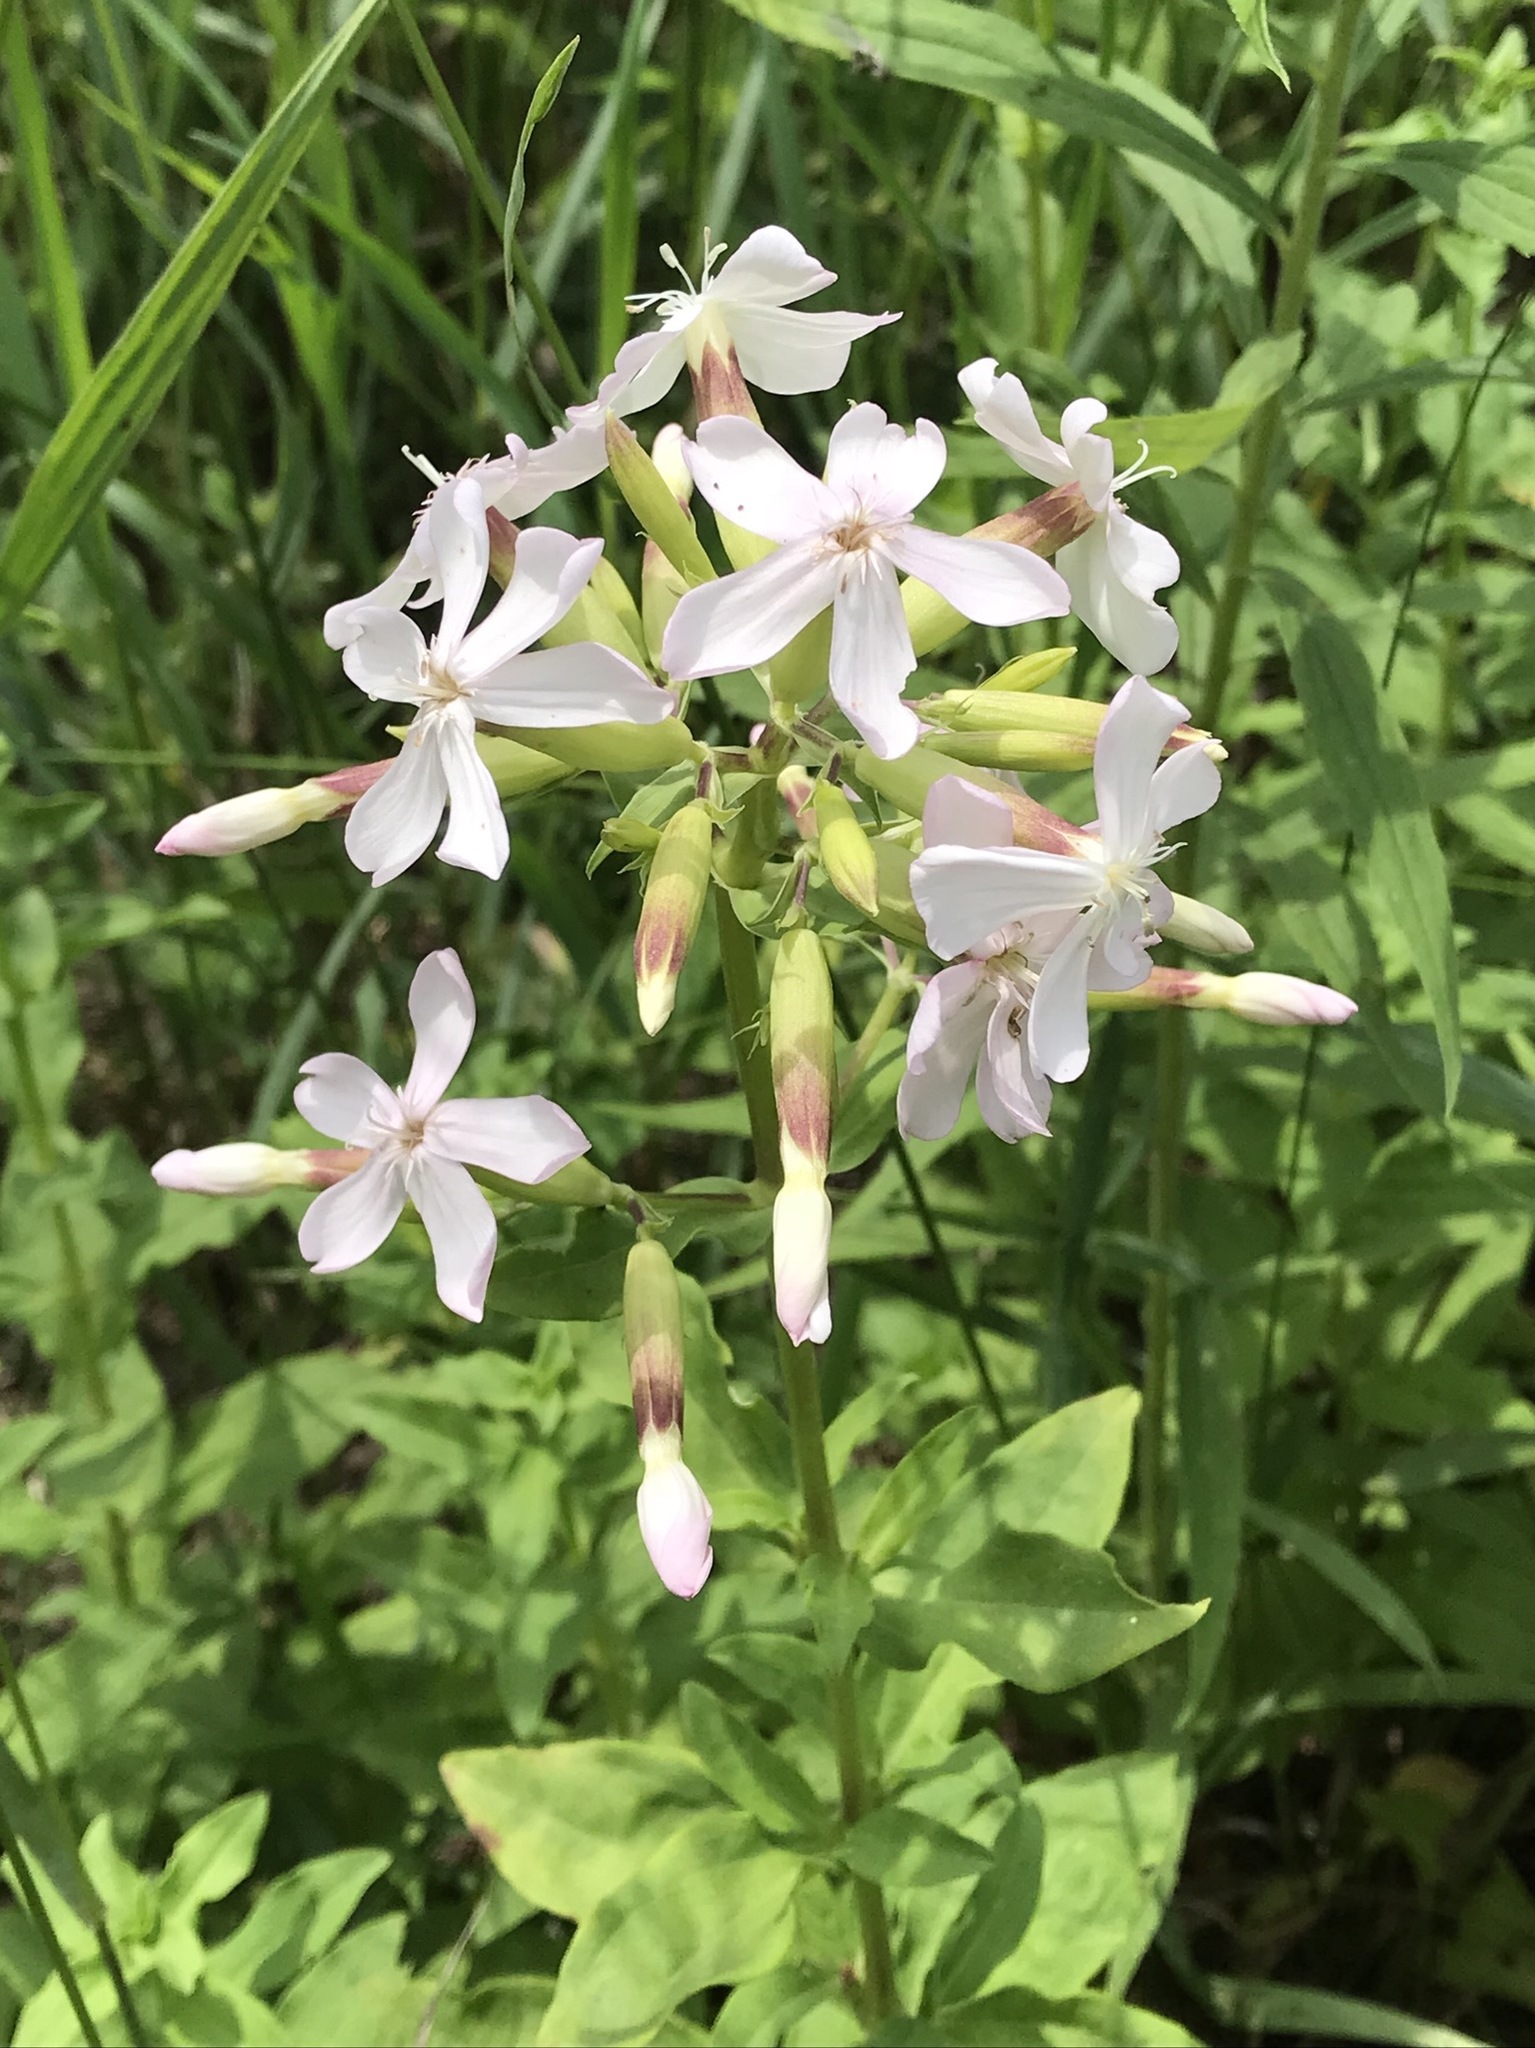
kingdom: Plantae
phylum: Tracheophyta
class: Magnoliopsida
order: Caryophyllales
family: Caryophyllaceae
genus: Saponaria
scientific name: Saponaria officinalis
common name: Soapwort
